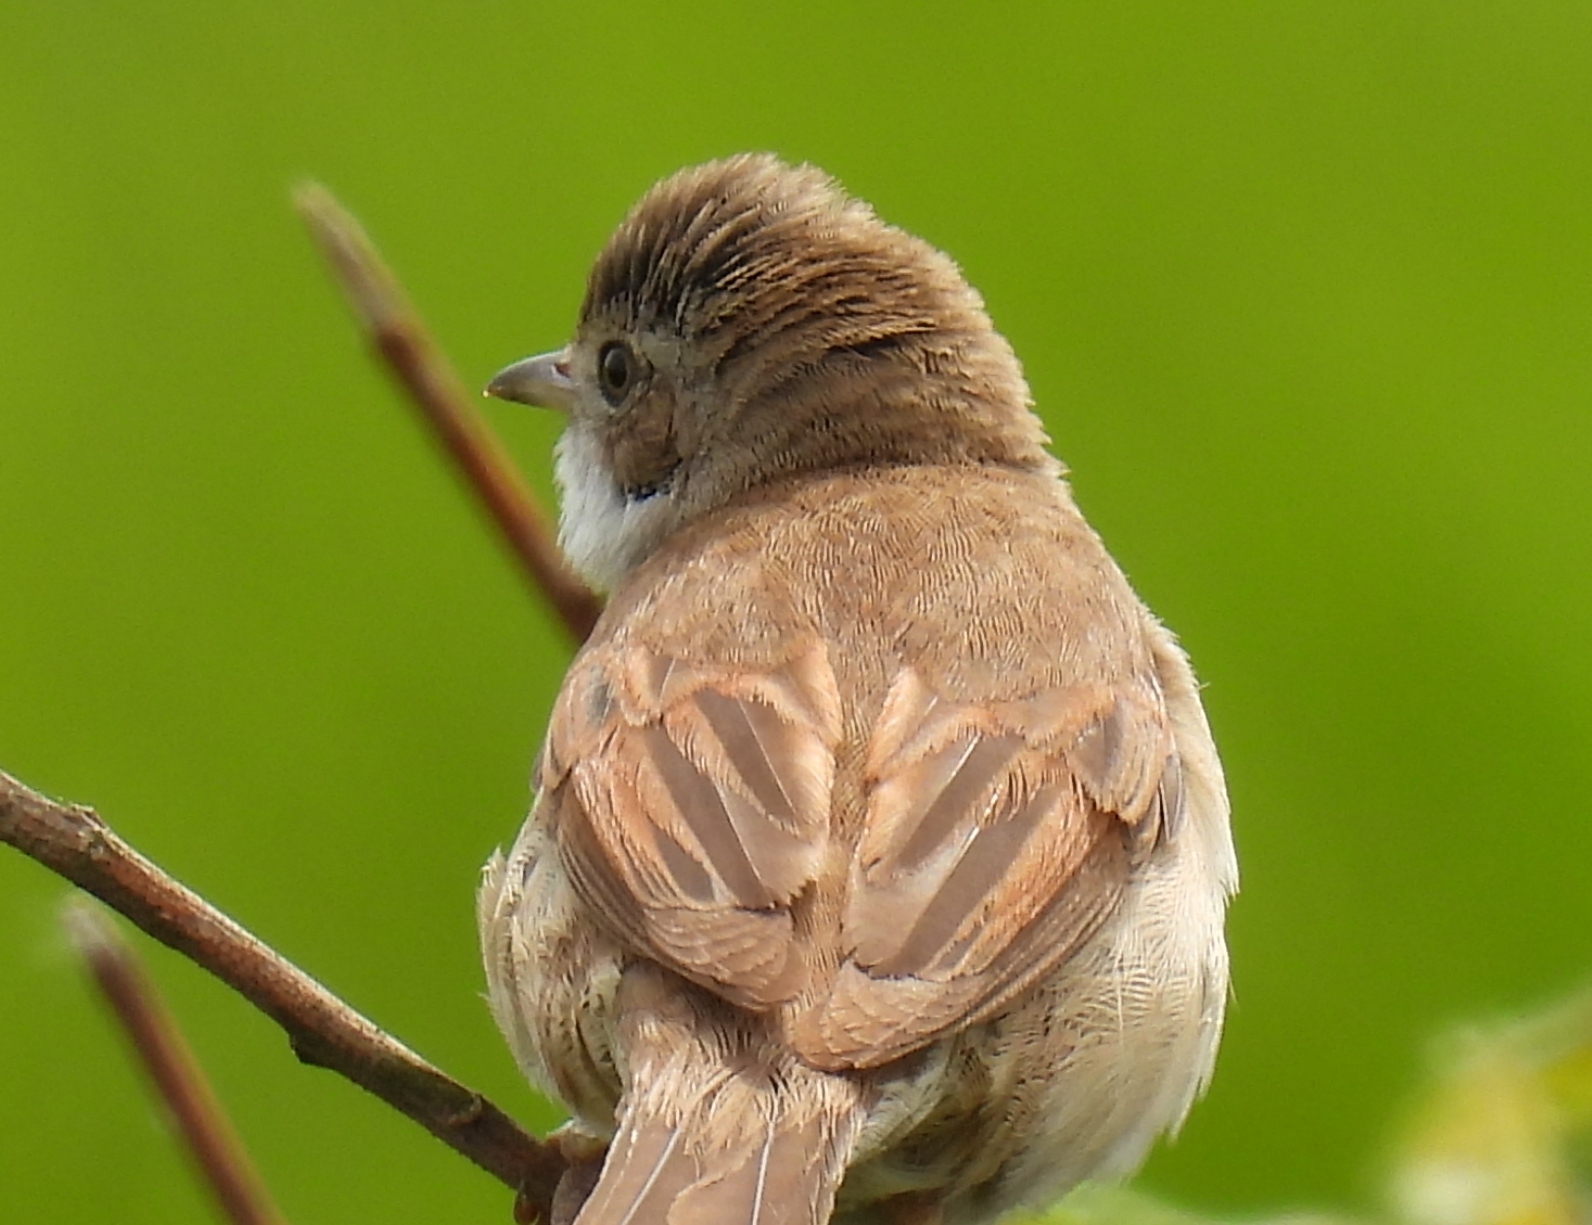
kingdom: Animalia
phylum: Chordata
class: Aves
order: Passeriformes
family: Sylviidae
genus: Sylvia
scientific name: Sylvia communis
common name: Common whitethroat
